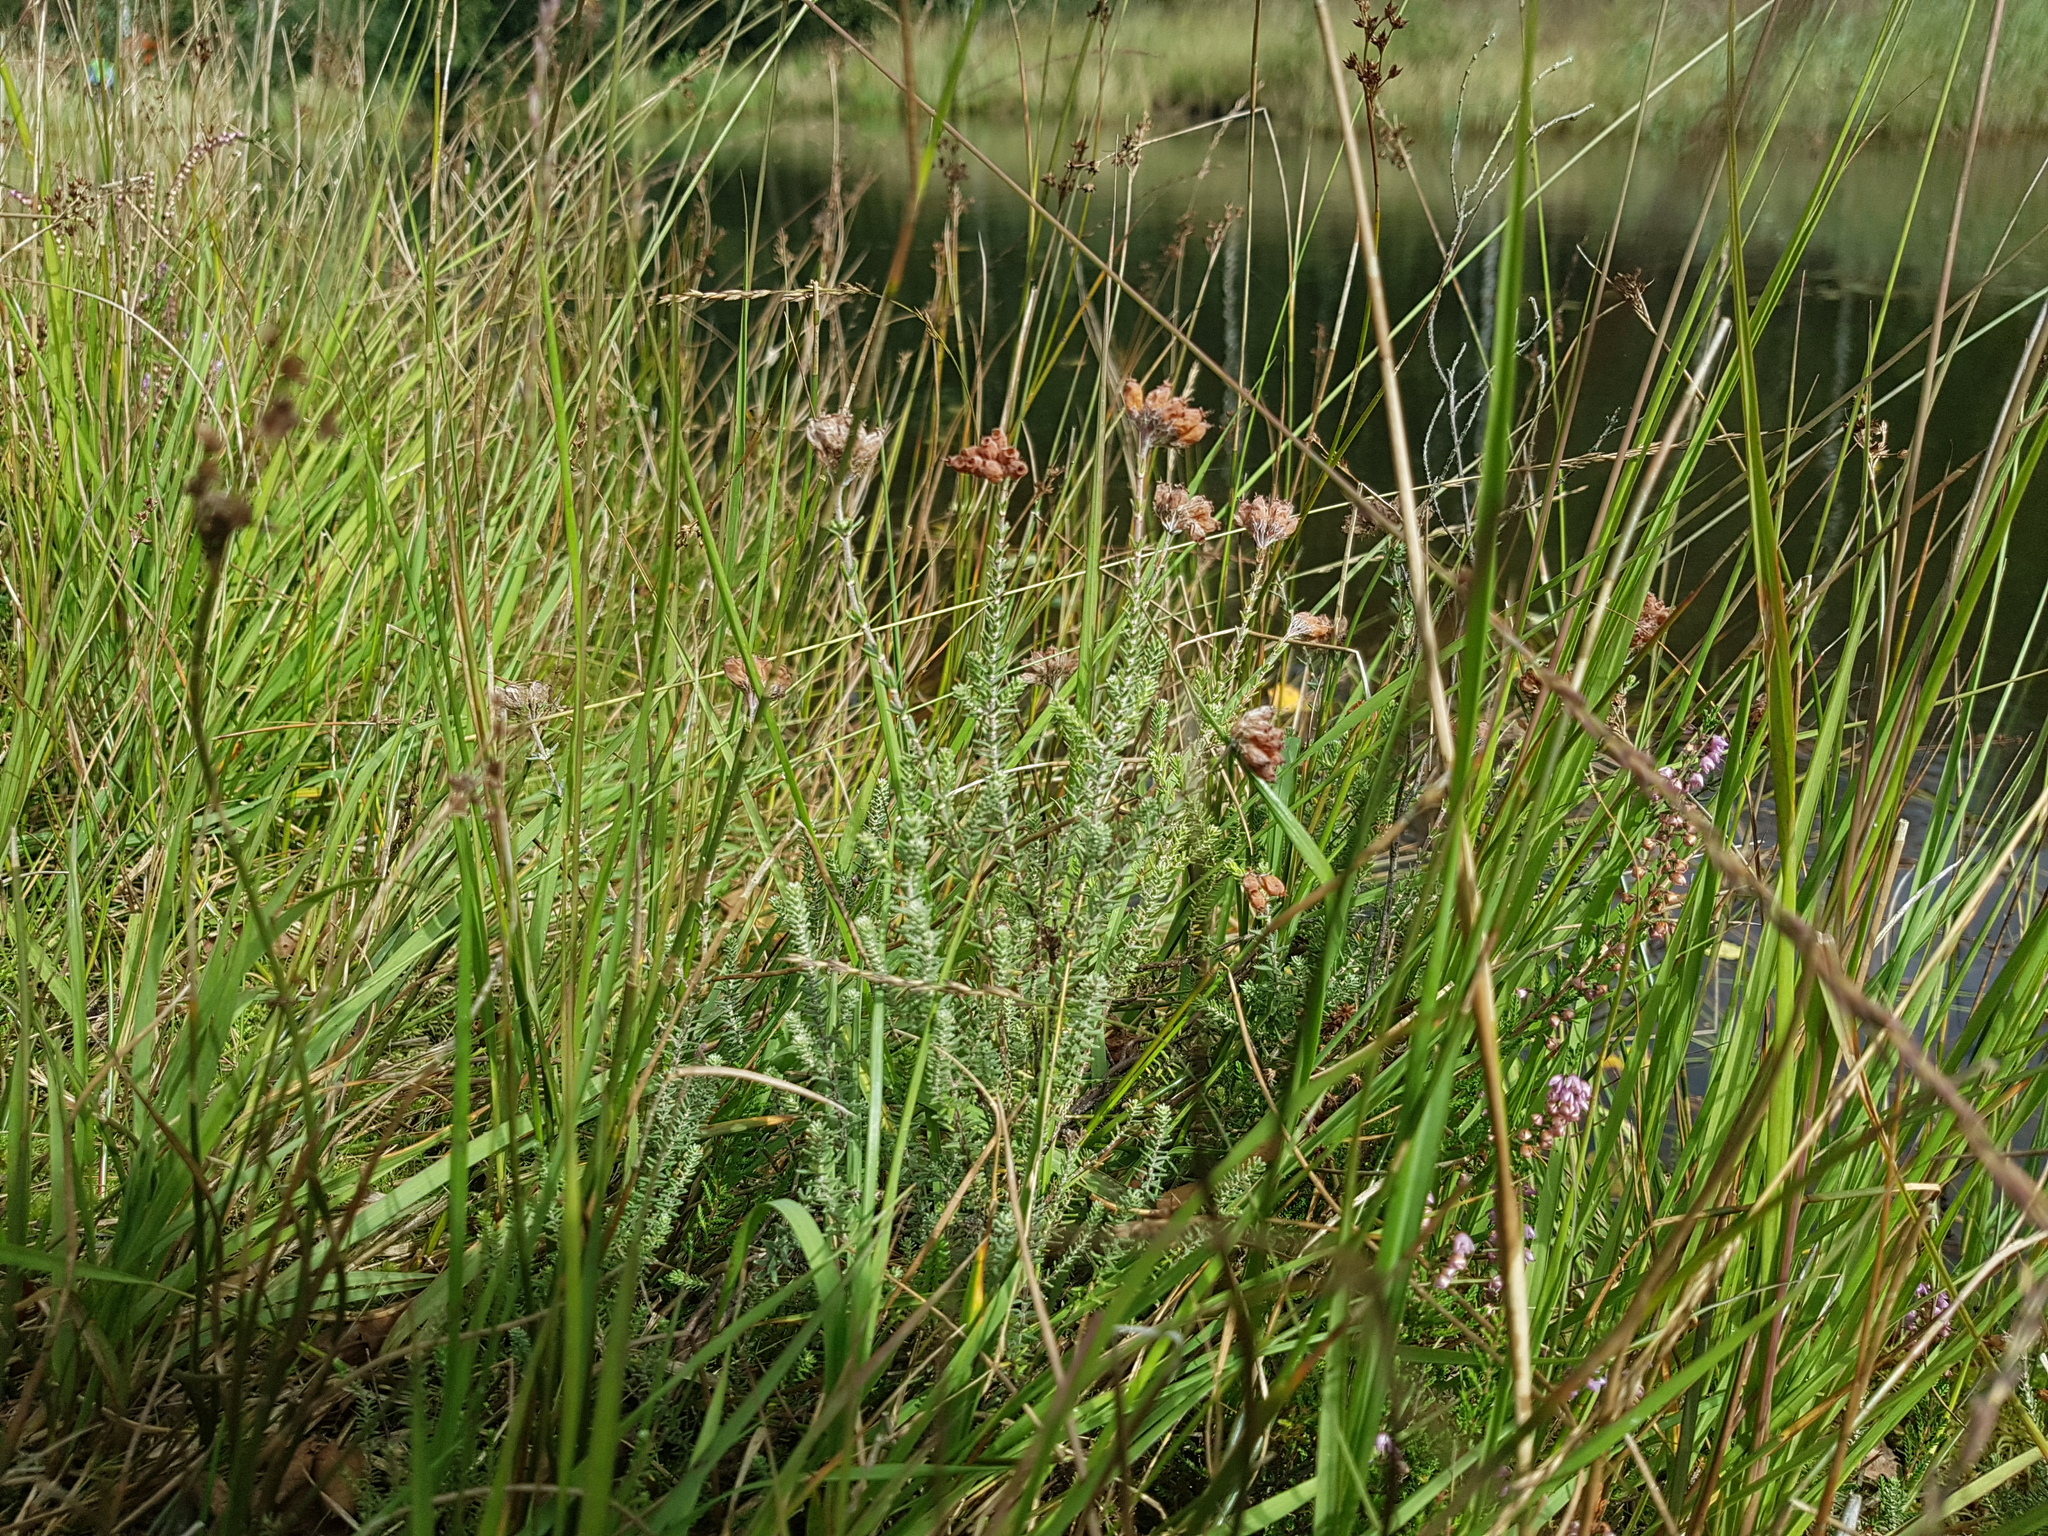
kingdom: Plantae
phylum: Tracheophyta
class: Magnoliopsida
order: Ericales
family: Ericaceae
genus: Erica
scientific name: Erica tetralix
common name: Cross-leaved heath
